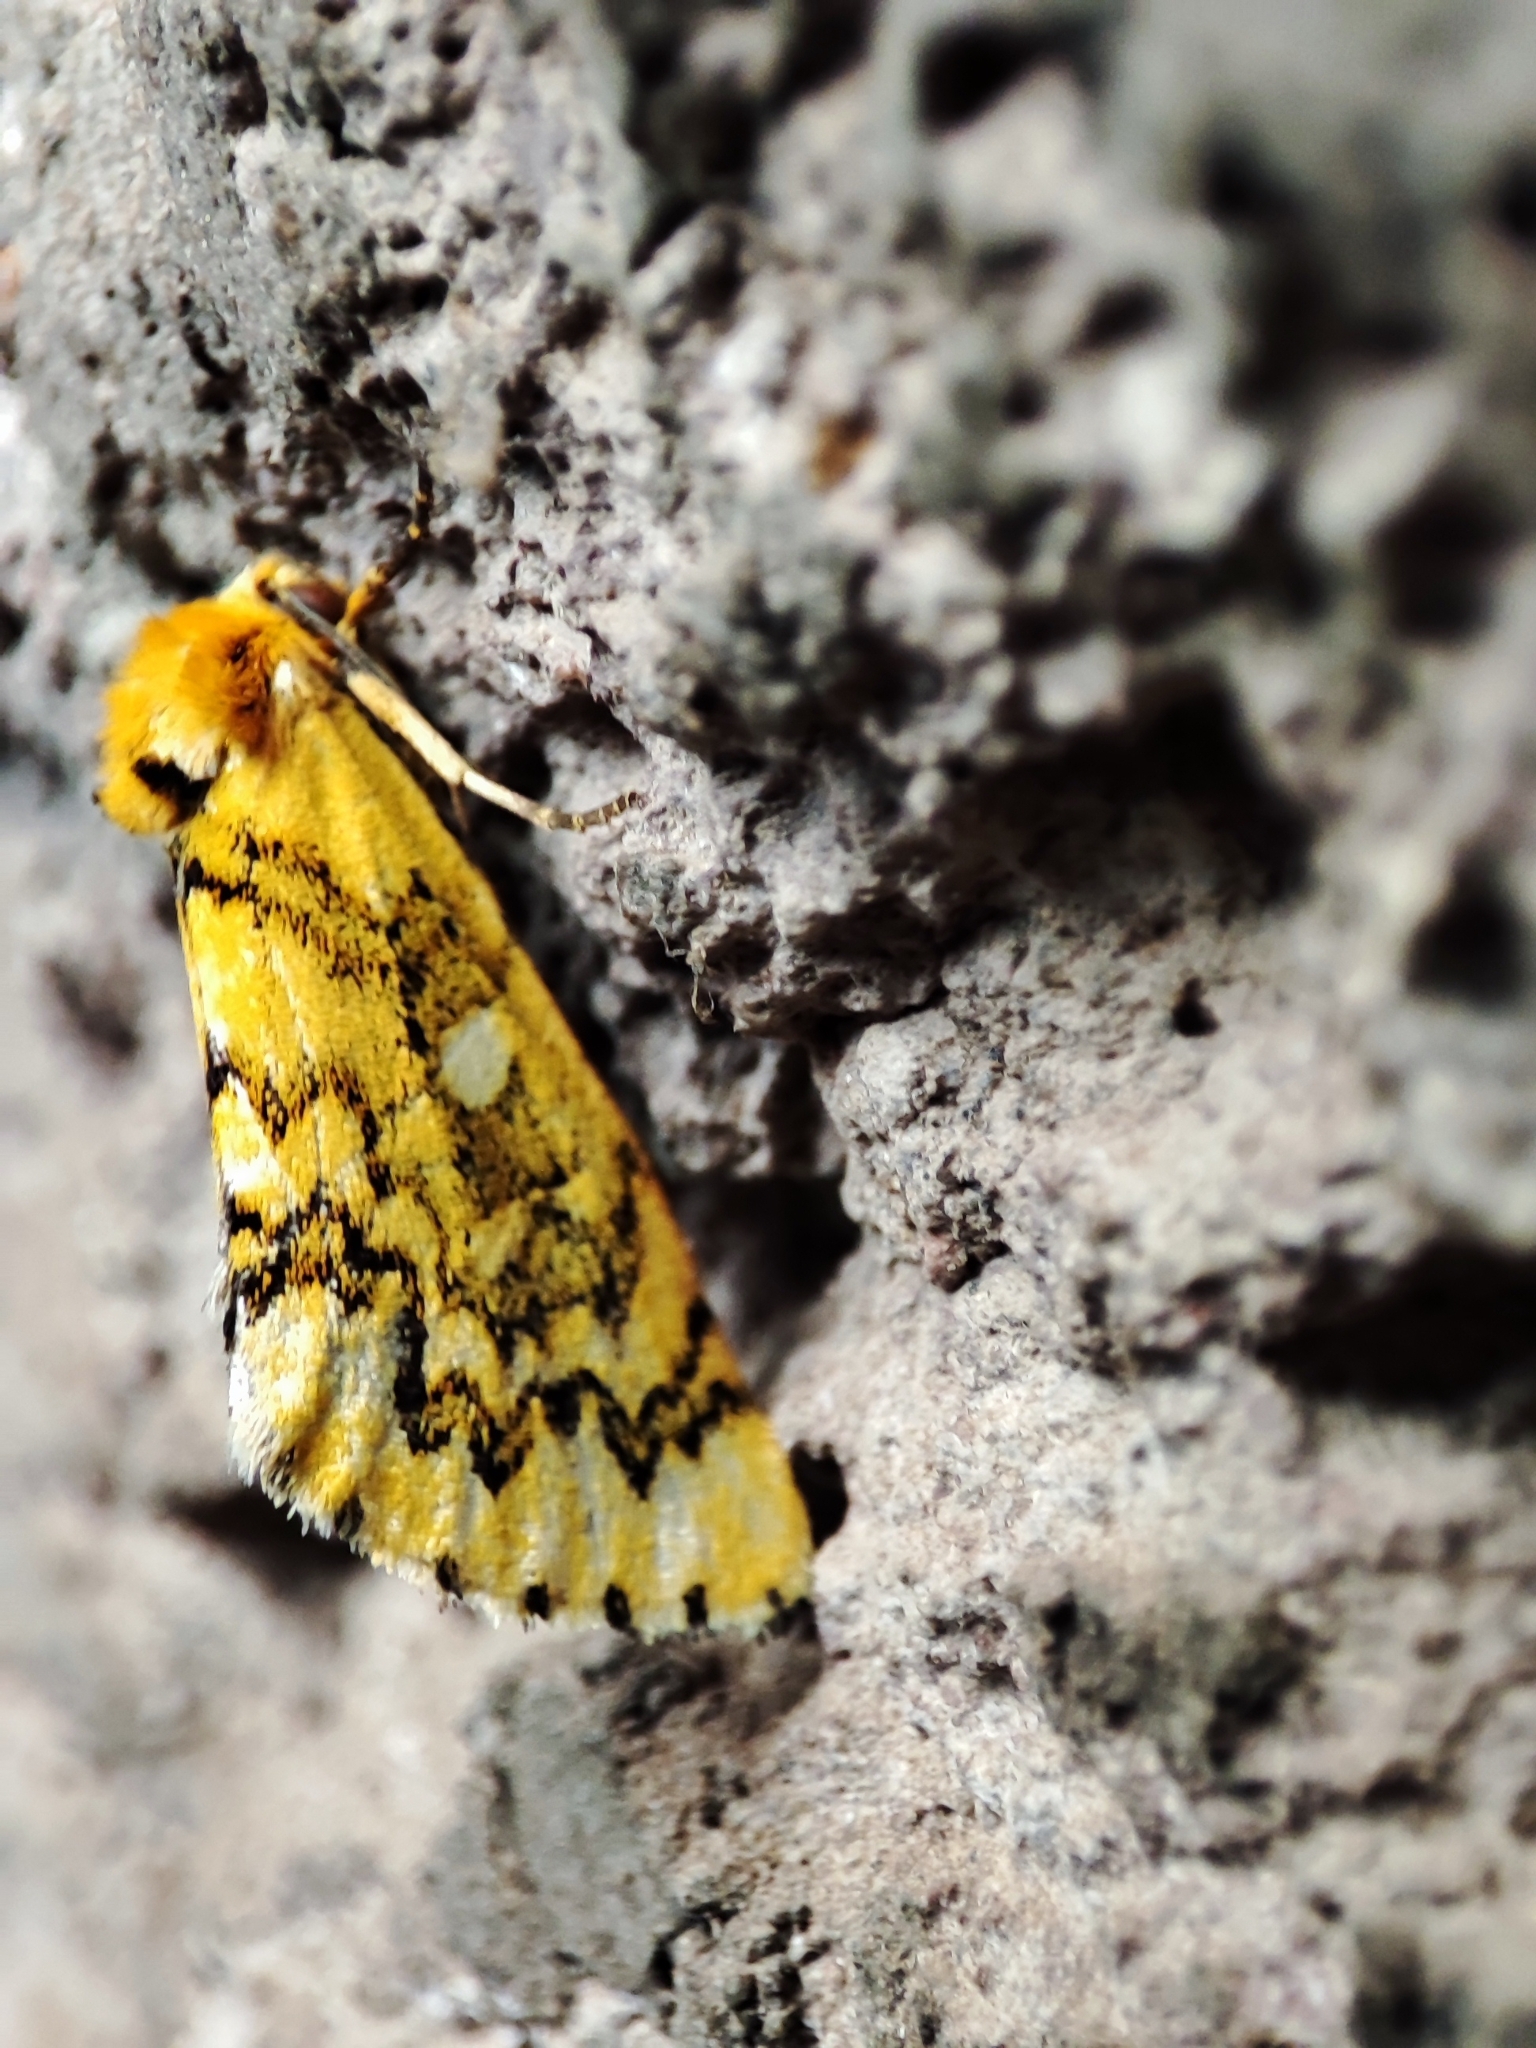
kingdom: Animalia
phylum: Arthropoda
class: Insecta
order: Lepidoptera
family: Noctuidae
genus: Chrysoecia
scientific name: Chrysoecia
